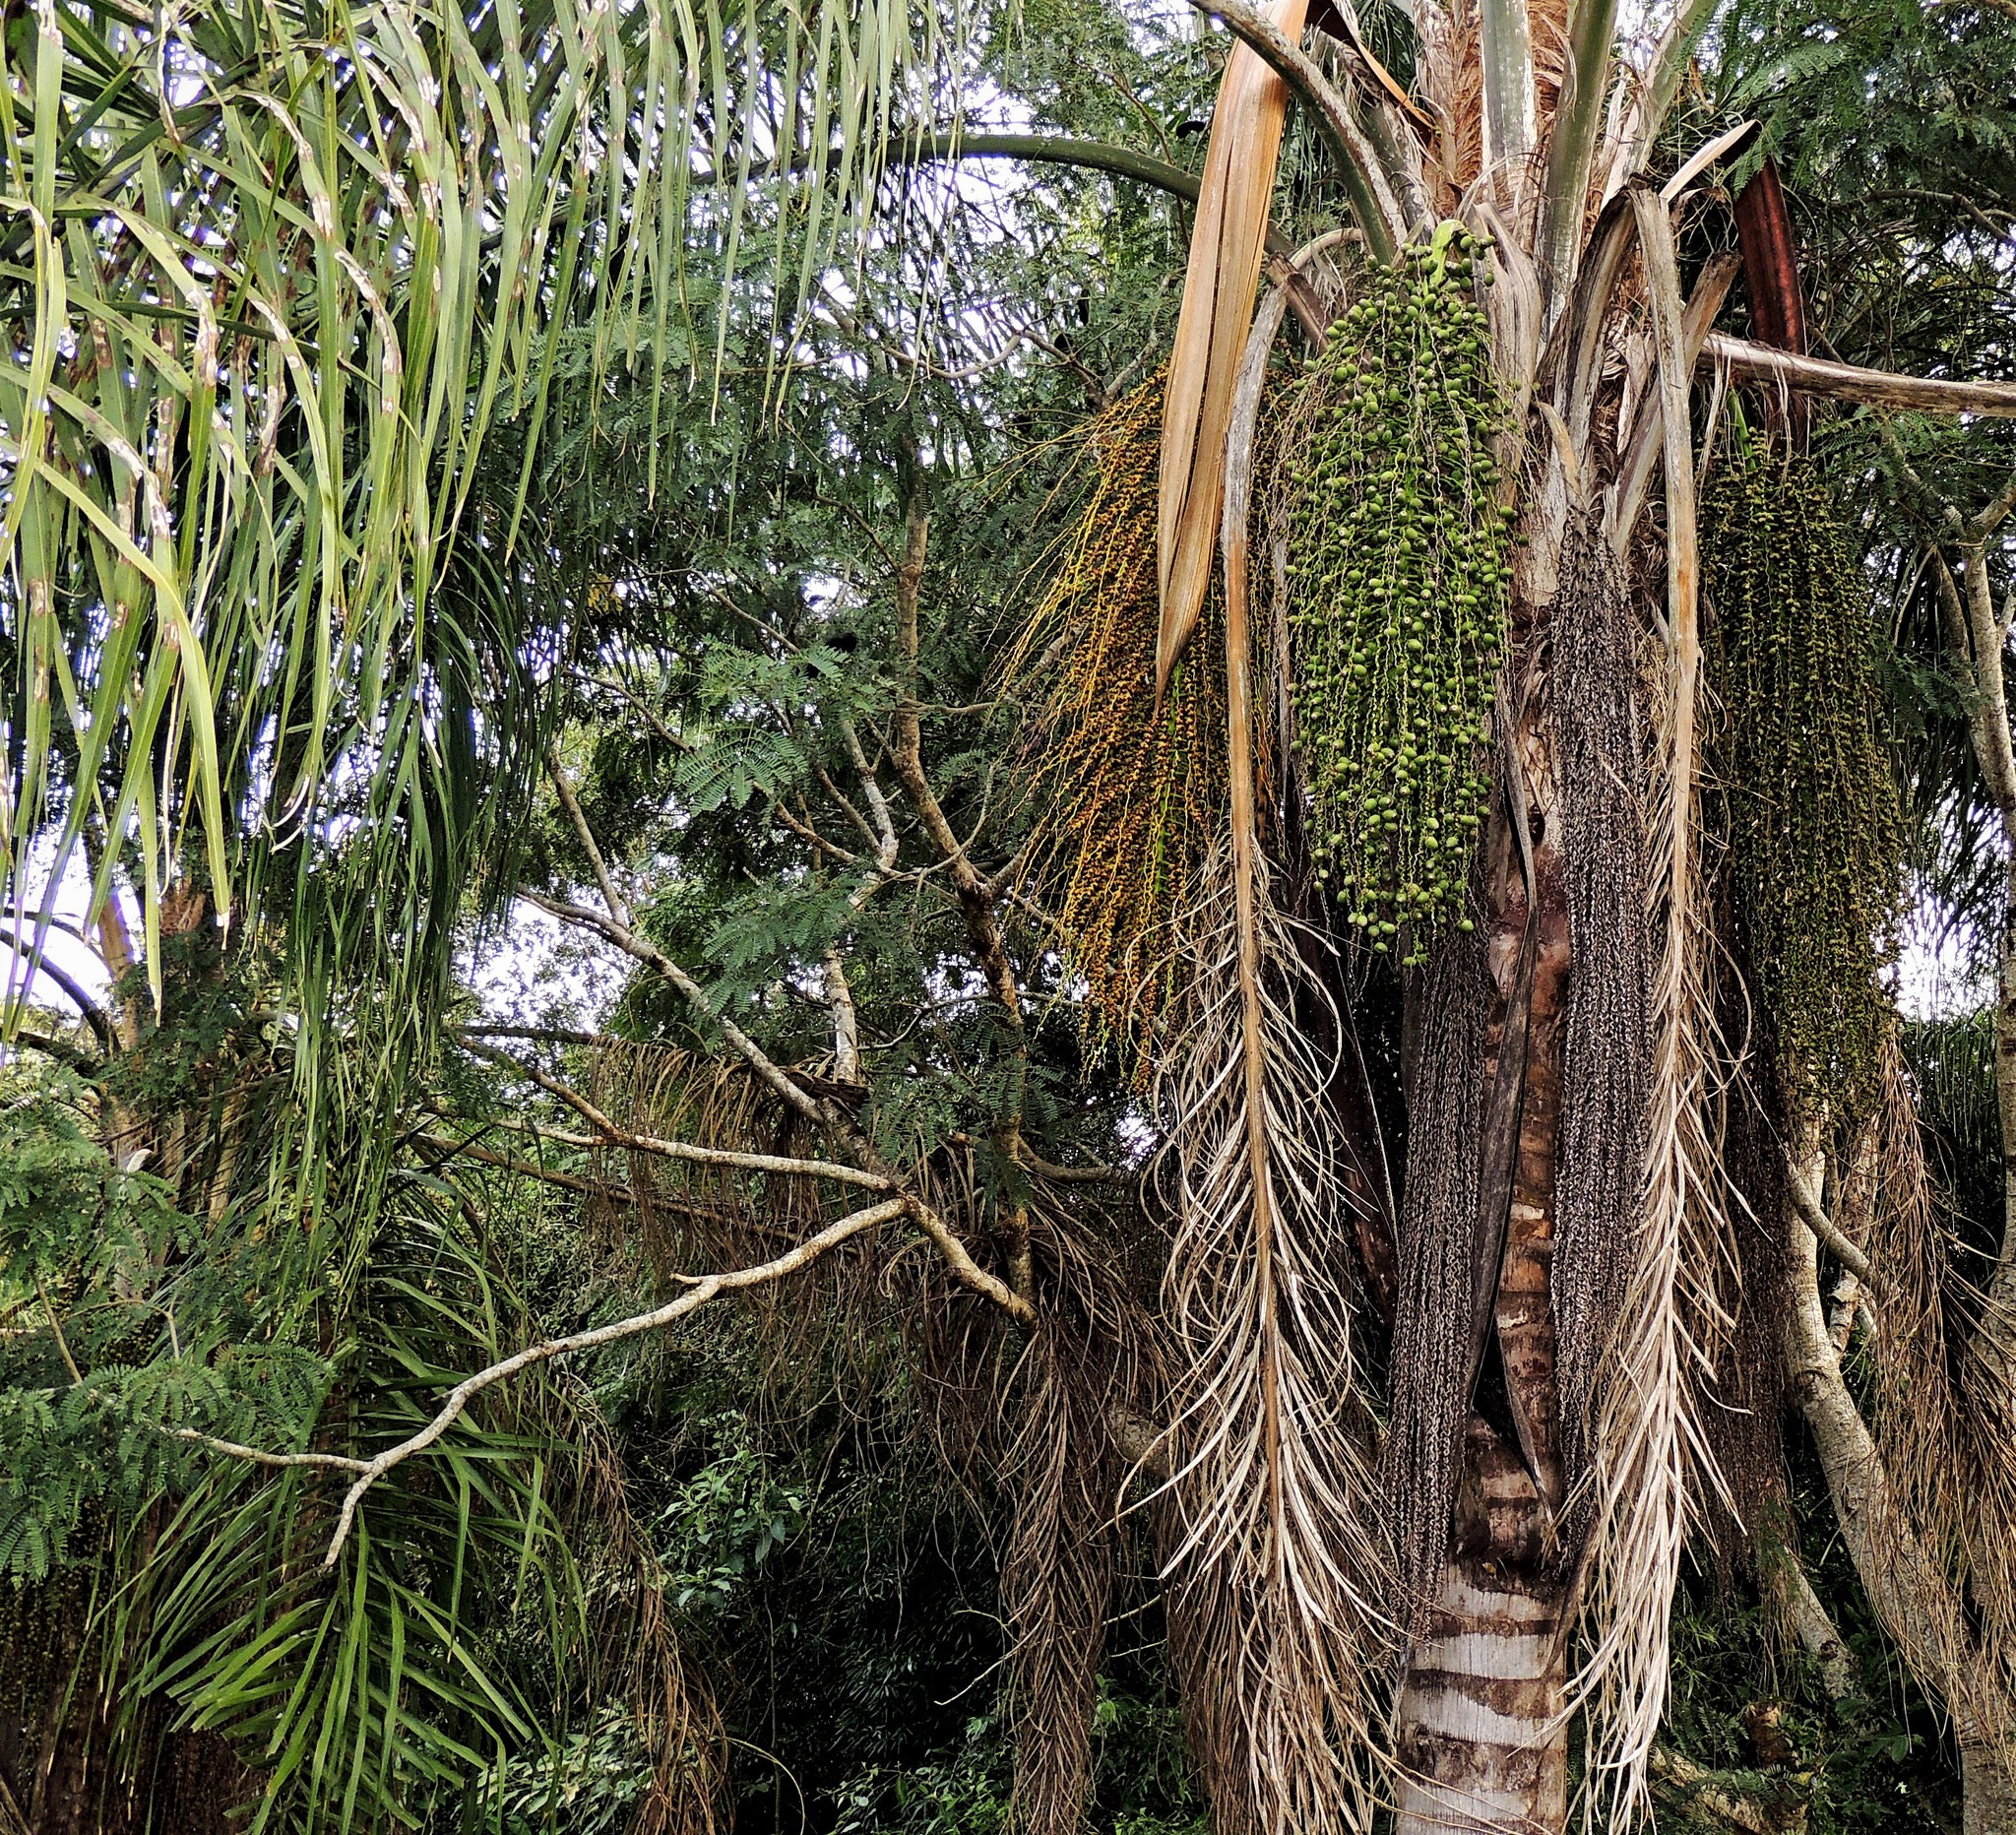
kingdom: Plantae
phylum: Tracheophyta
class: Liliopsida
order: Arecales
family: Arecaceae
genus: Syagrus
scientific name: Syagrus romanzoffiana
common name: Queen palm
